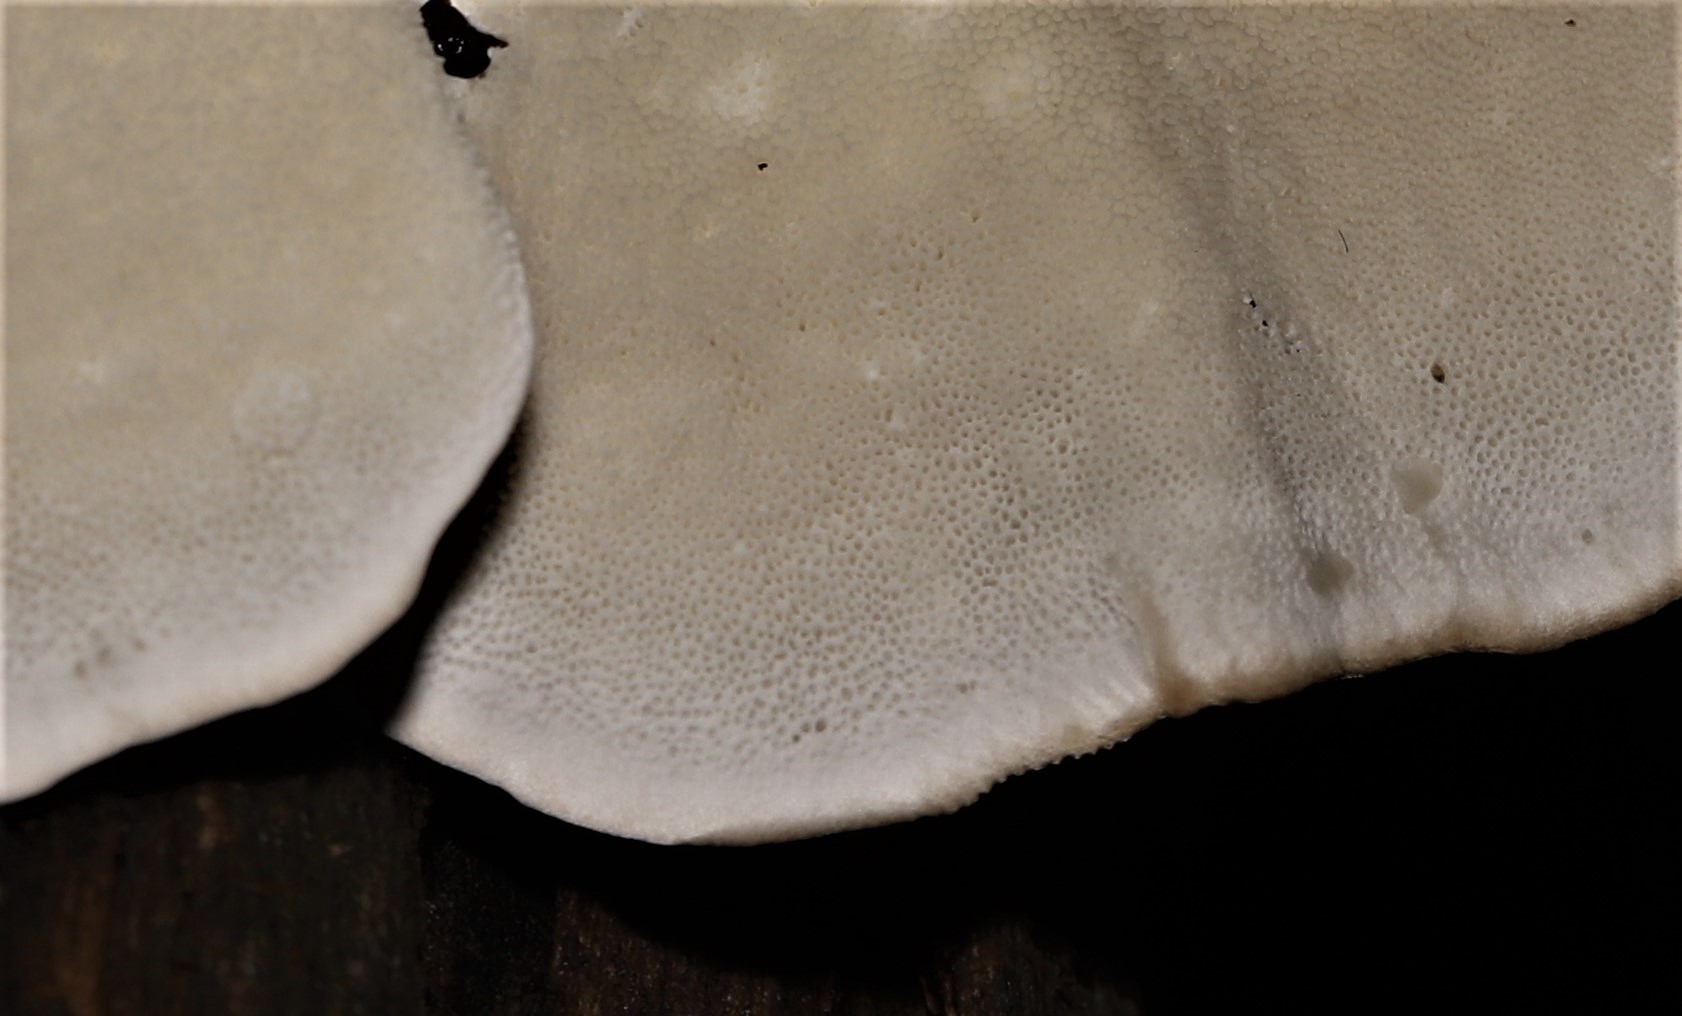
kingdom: Fungi
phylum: Basidiomycota
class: Agaricomycetes
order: Polyporales
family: Polyporaceae
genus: Trametes
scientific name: Trametes versicolor
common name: Turkeytail
